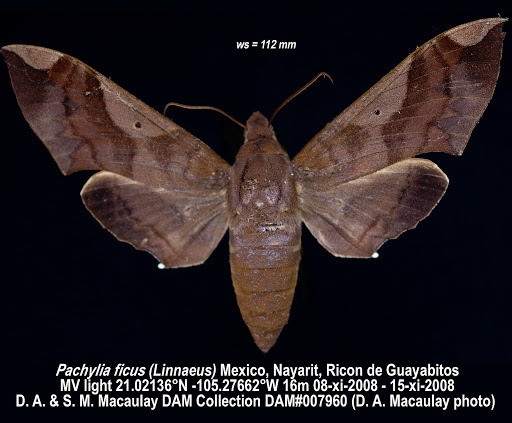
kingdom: Animalia
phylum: Arthropoda
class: Insecta
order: Lepidoptera
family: Sphingidae
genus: Pachylia
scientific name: Pachylia syces
